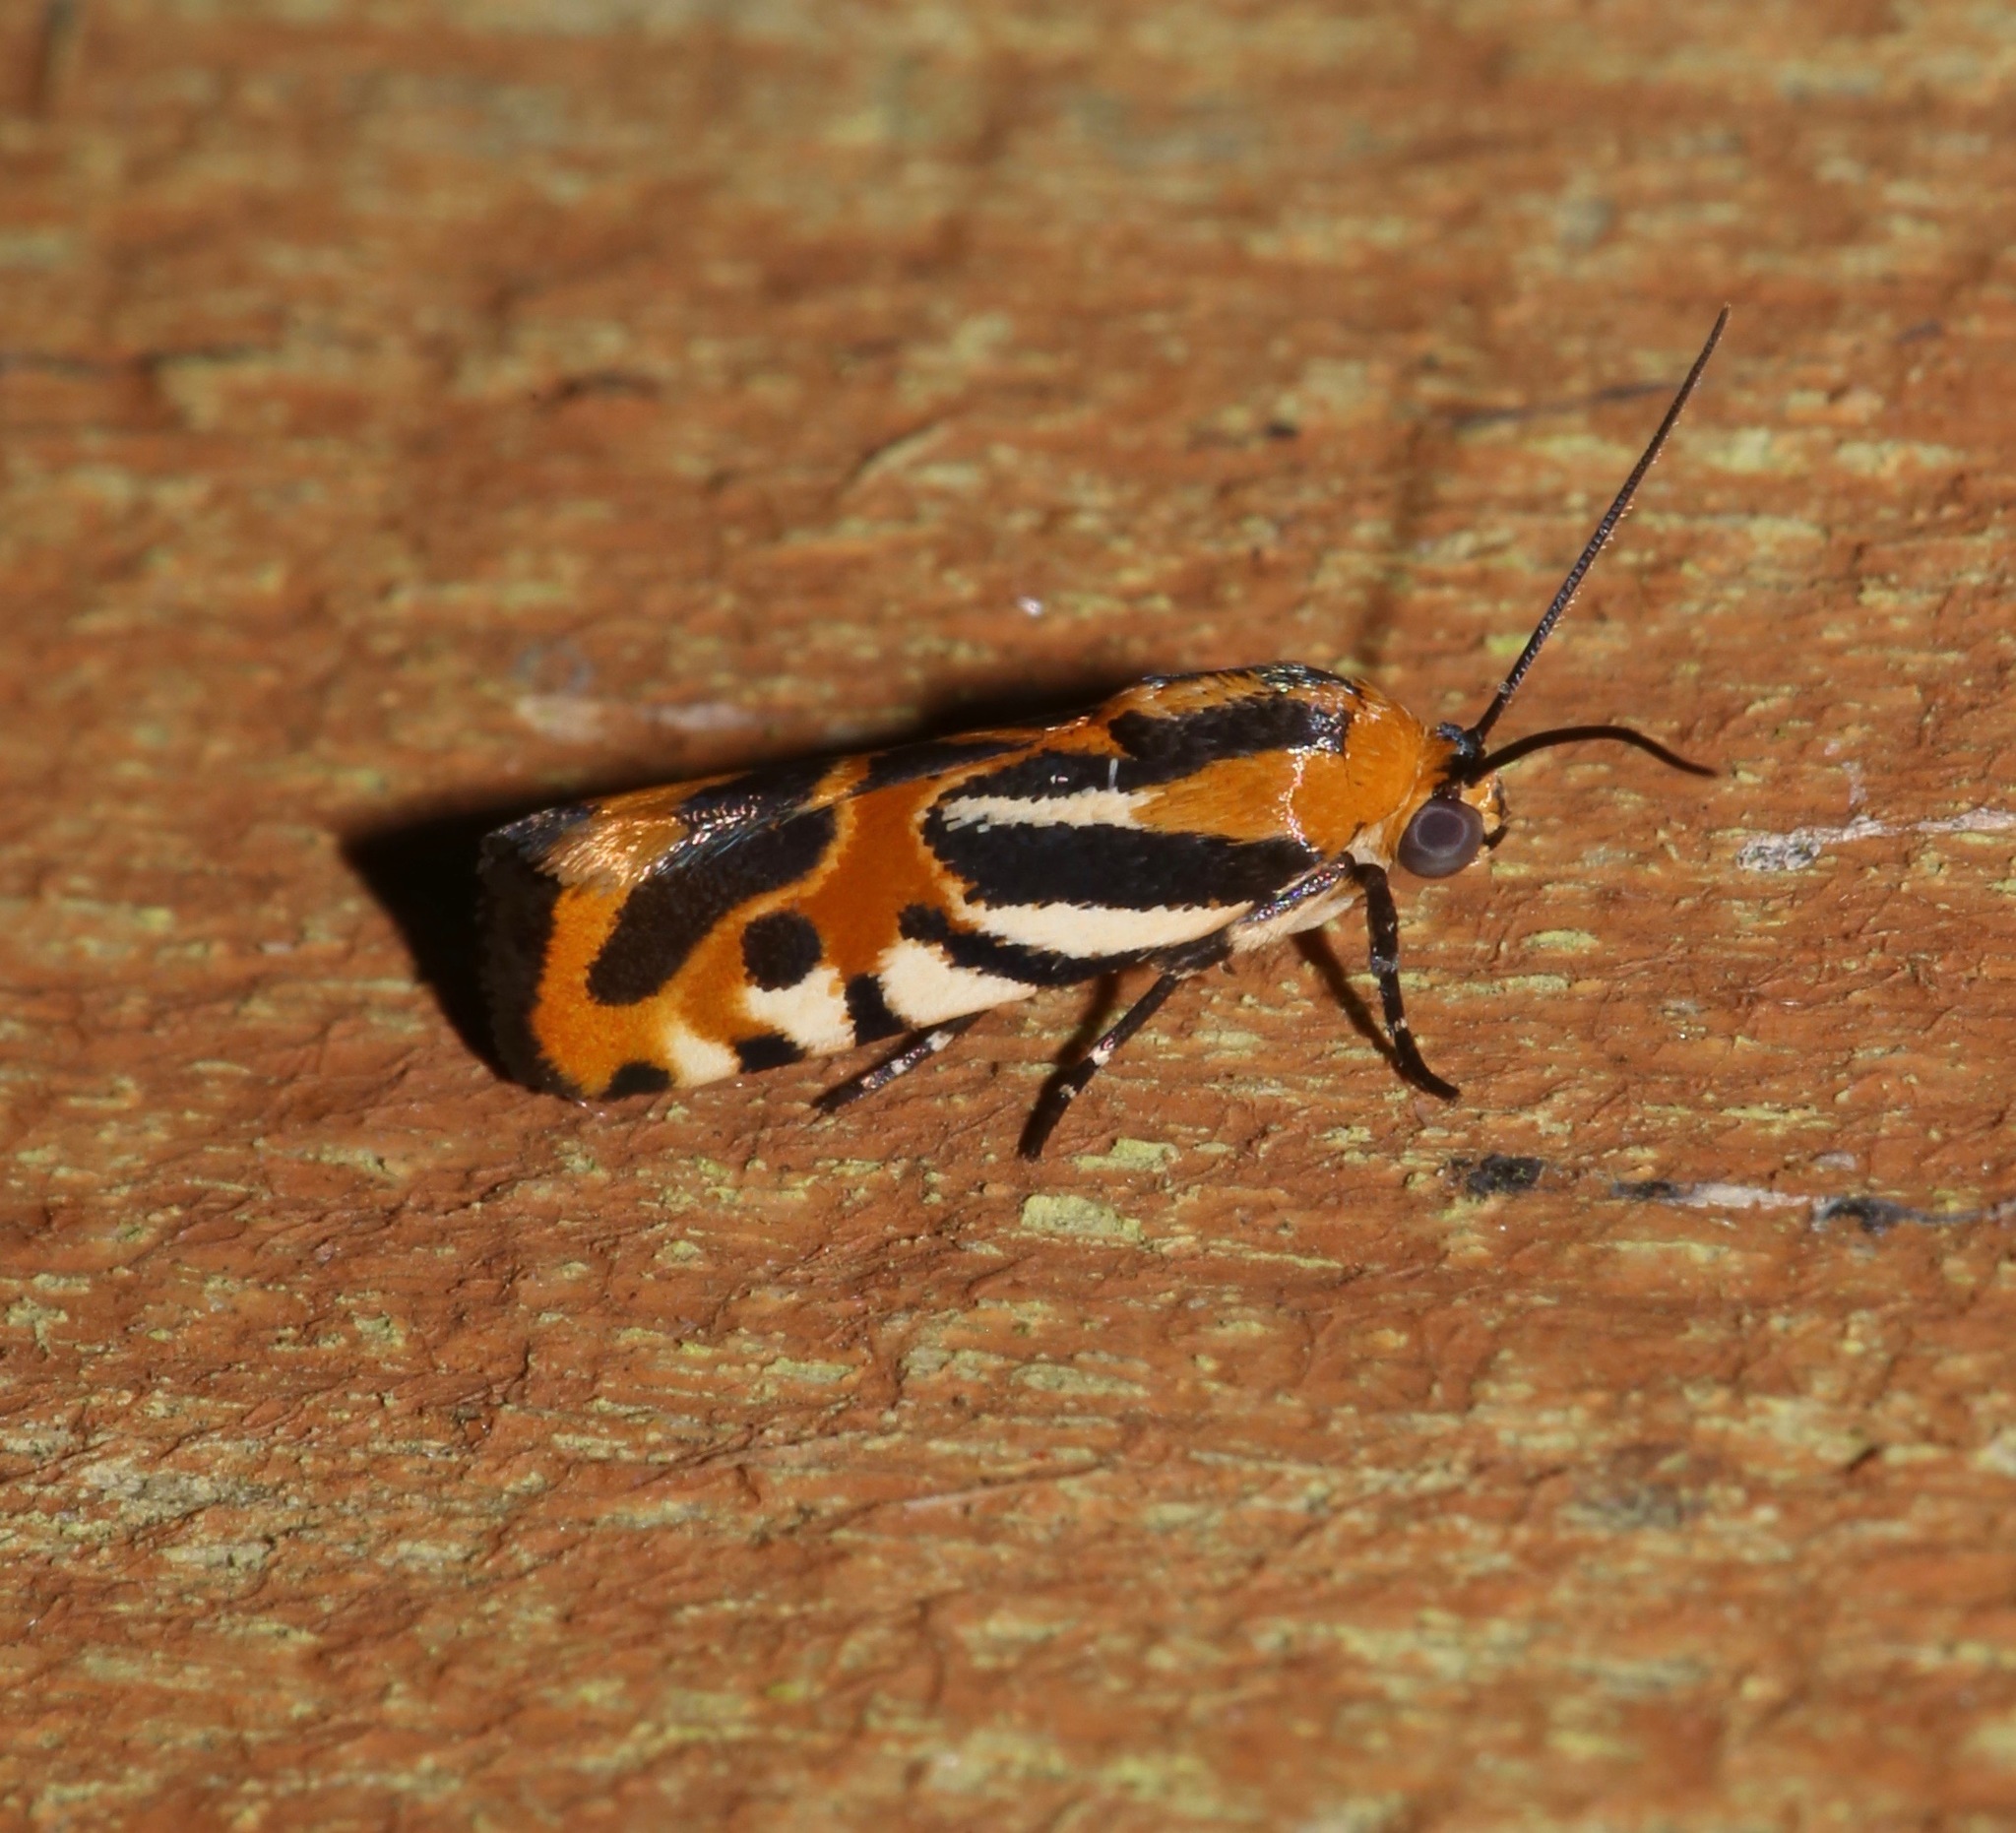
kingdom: Animalia
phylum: Arthropoda
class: Insecta
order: Lepidoptera
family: Noctuidae
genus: Acontia
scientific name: Acontia onagrus
